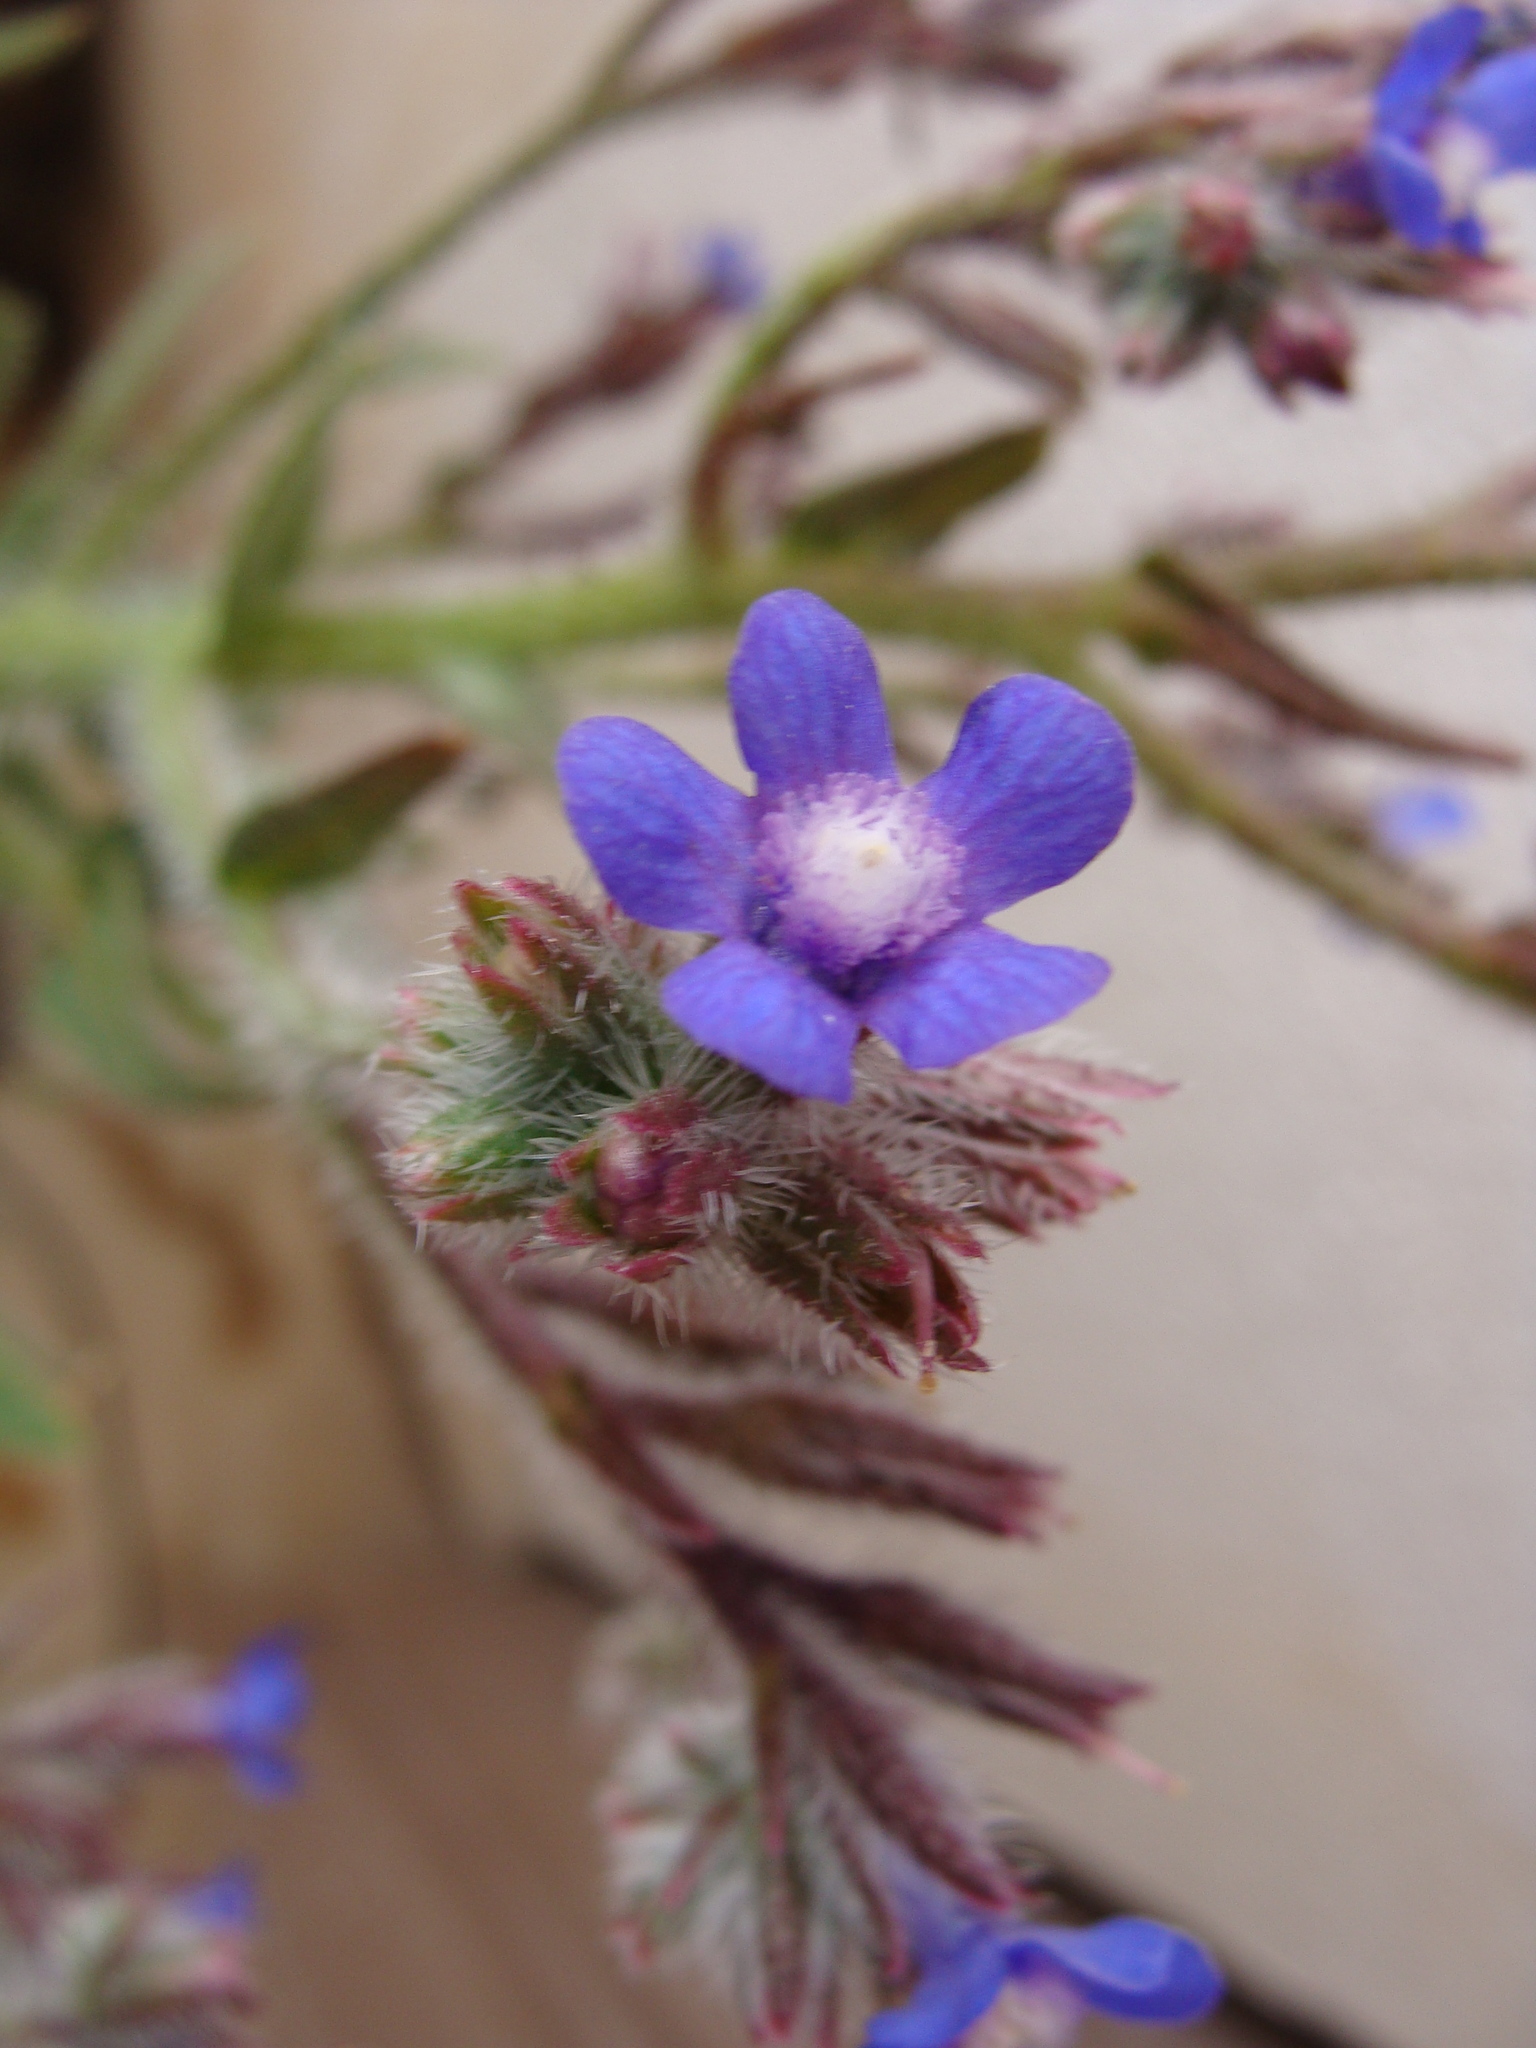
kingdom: Plantae
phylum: Tracheophyta
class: Magnoliopsida
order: Boraginales
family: Boraginaceae
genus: Anchusa
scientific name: Anchusa azurea
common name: Garden anchusa
